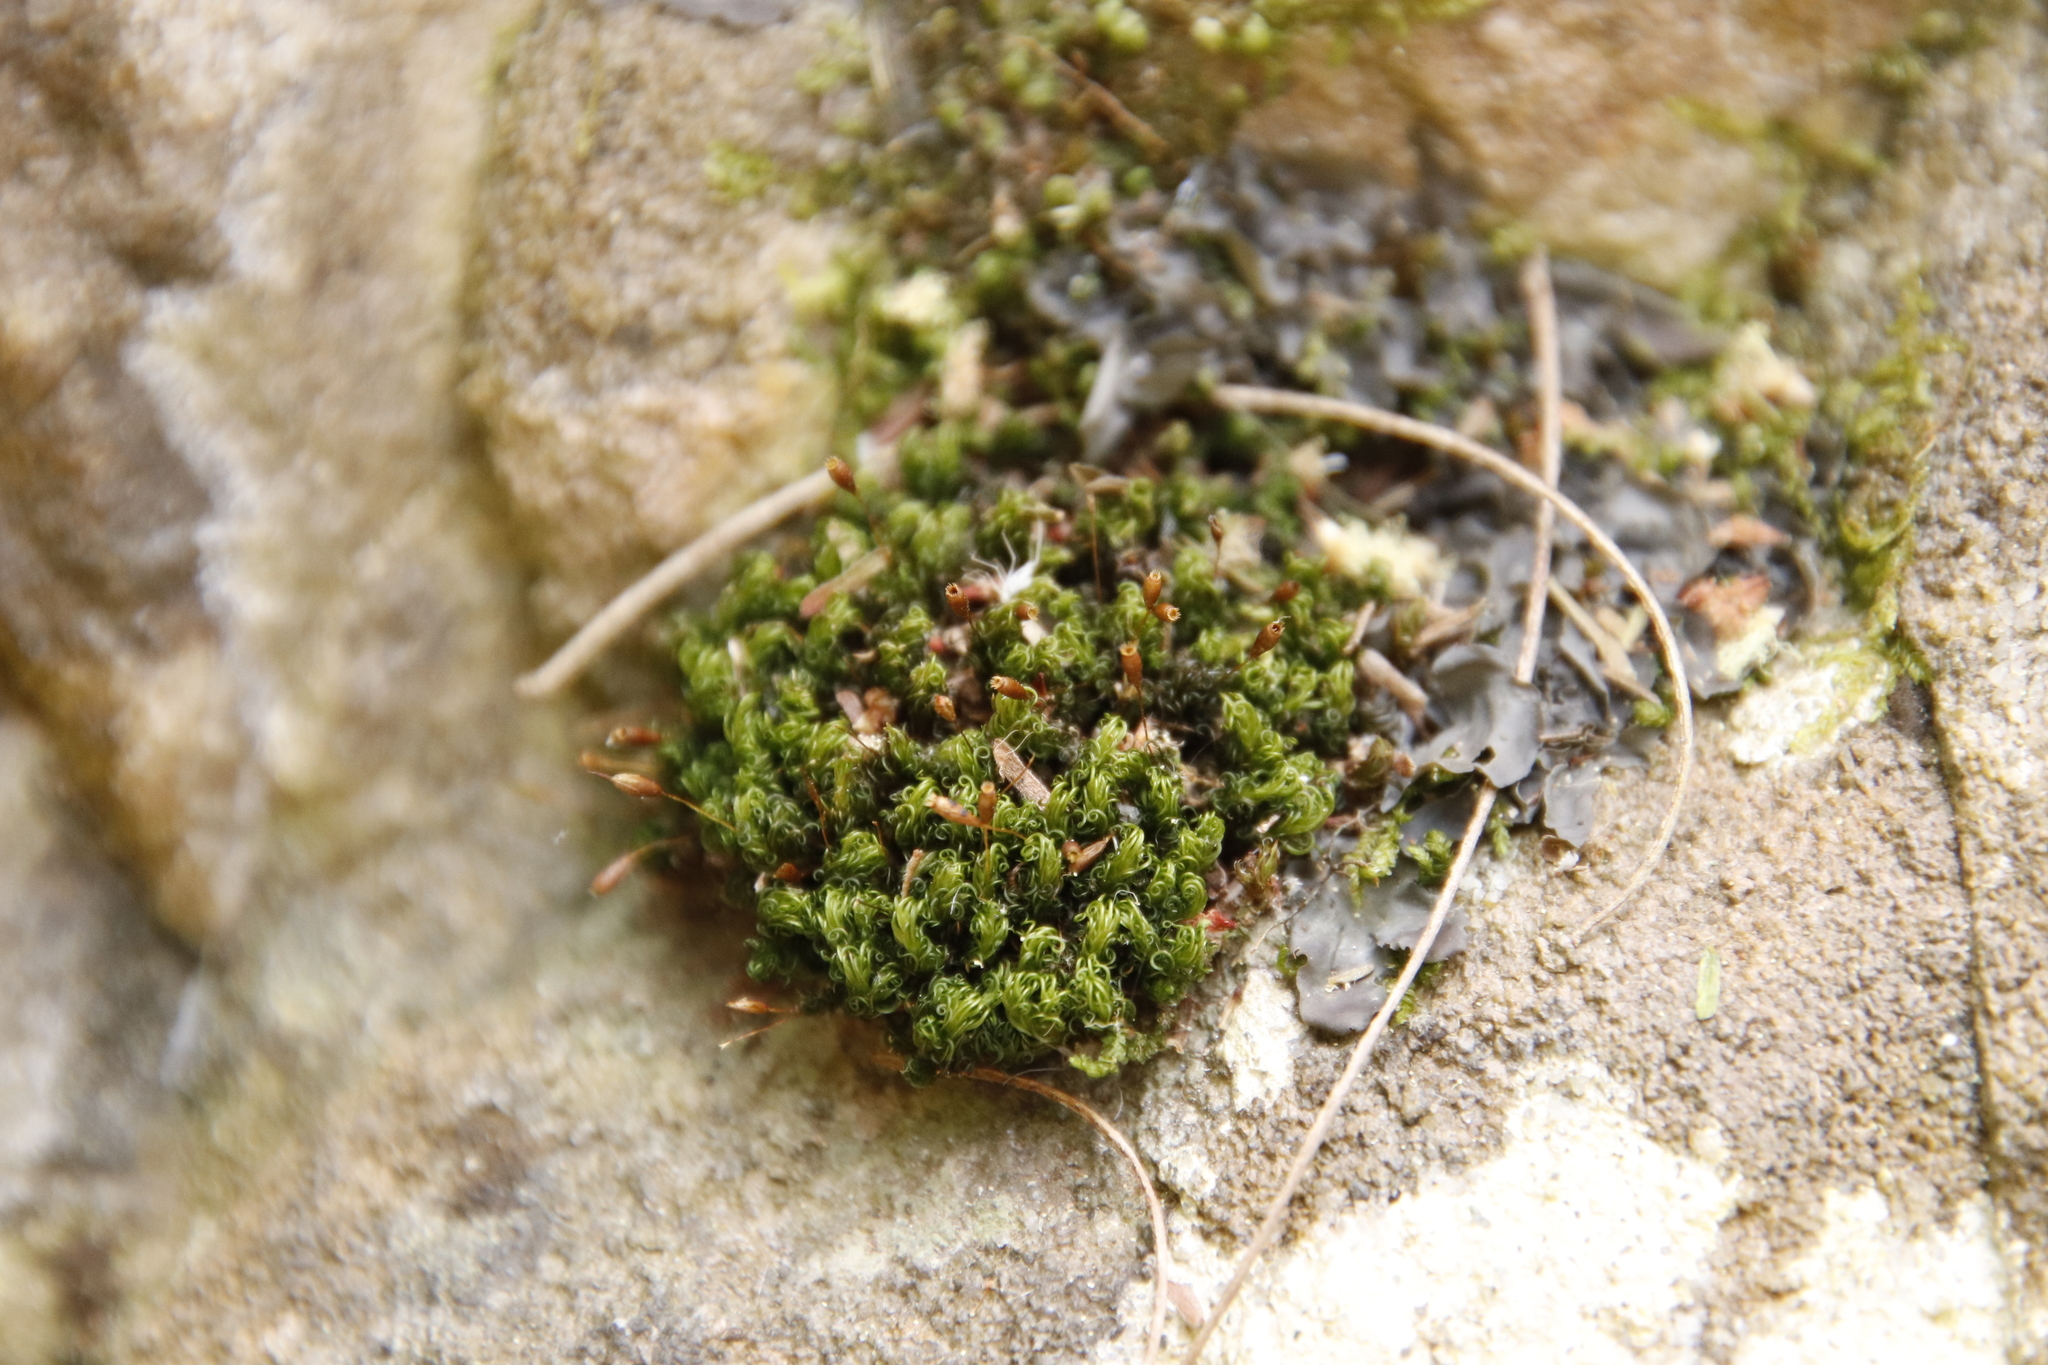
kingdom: Plantae
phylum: Bryophyta
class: Bryopsida
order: Grimmiales
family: Ptychomitriaceae
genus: Ptychomitrium
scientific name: Ptychomitrium crispatum
